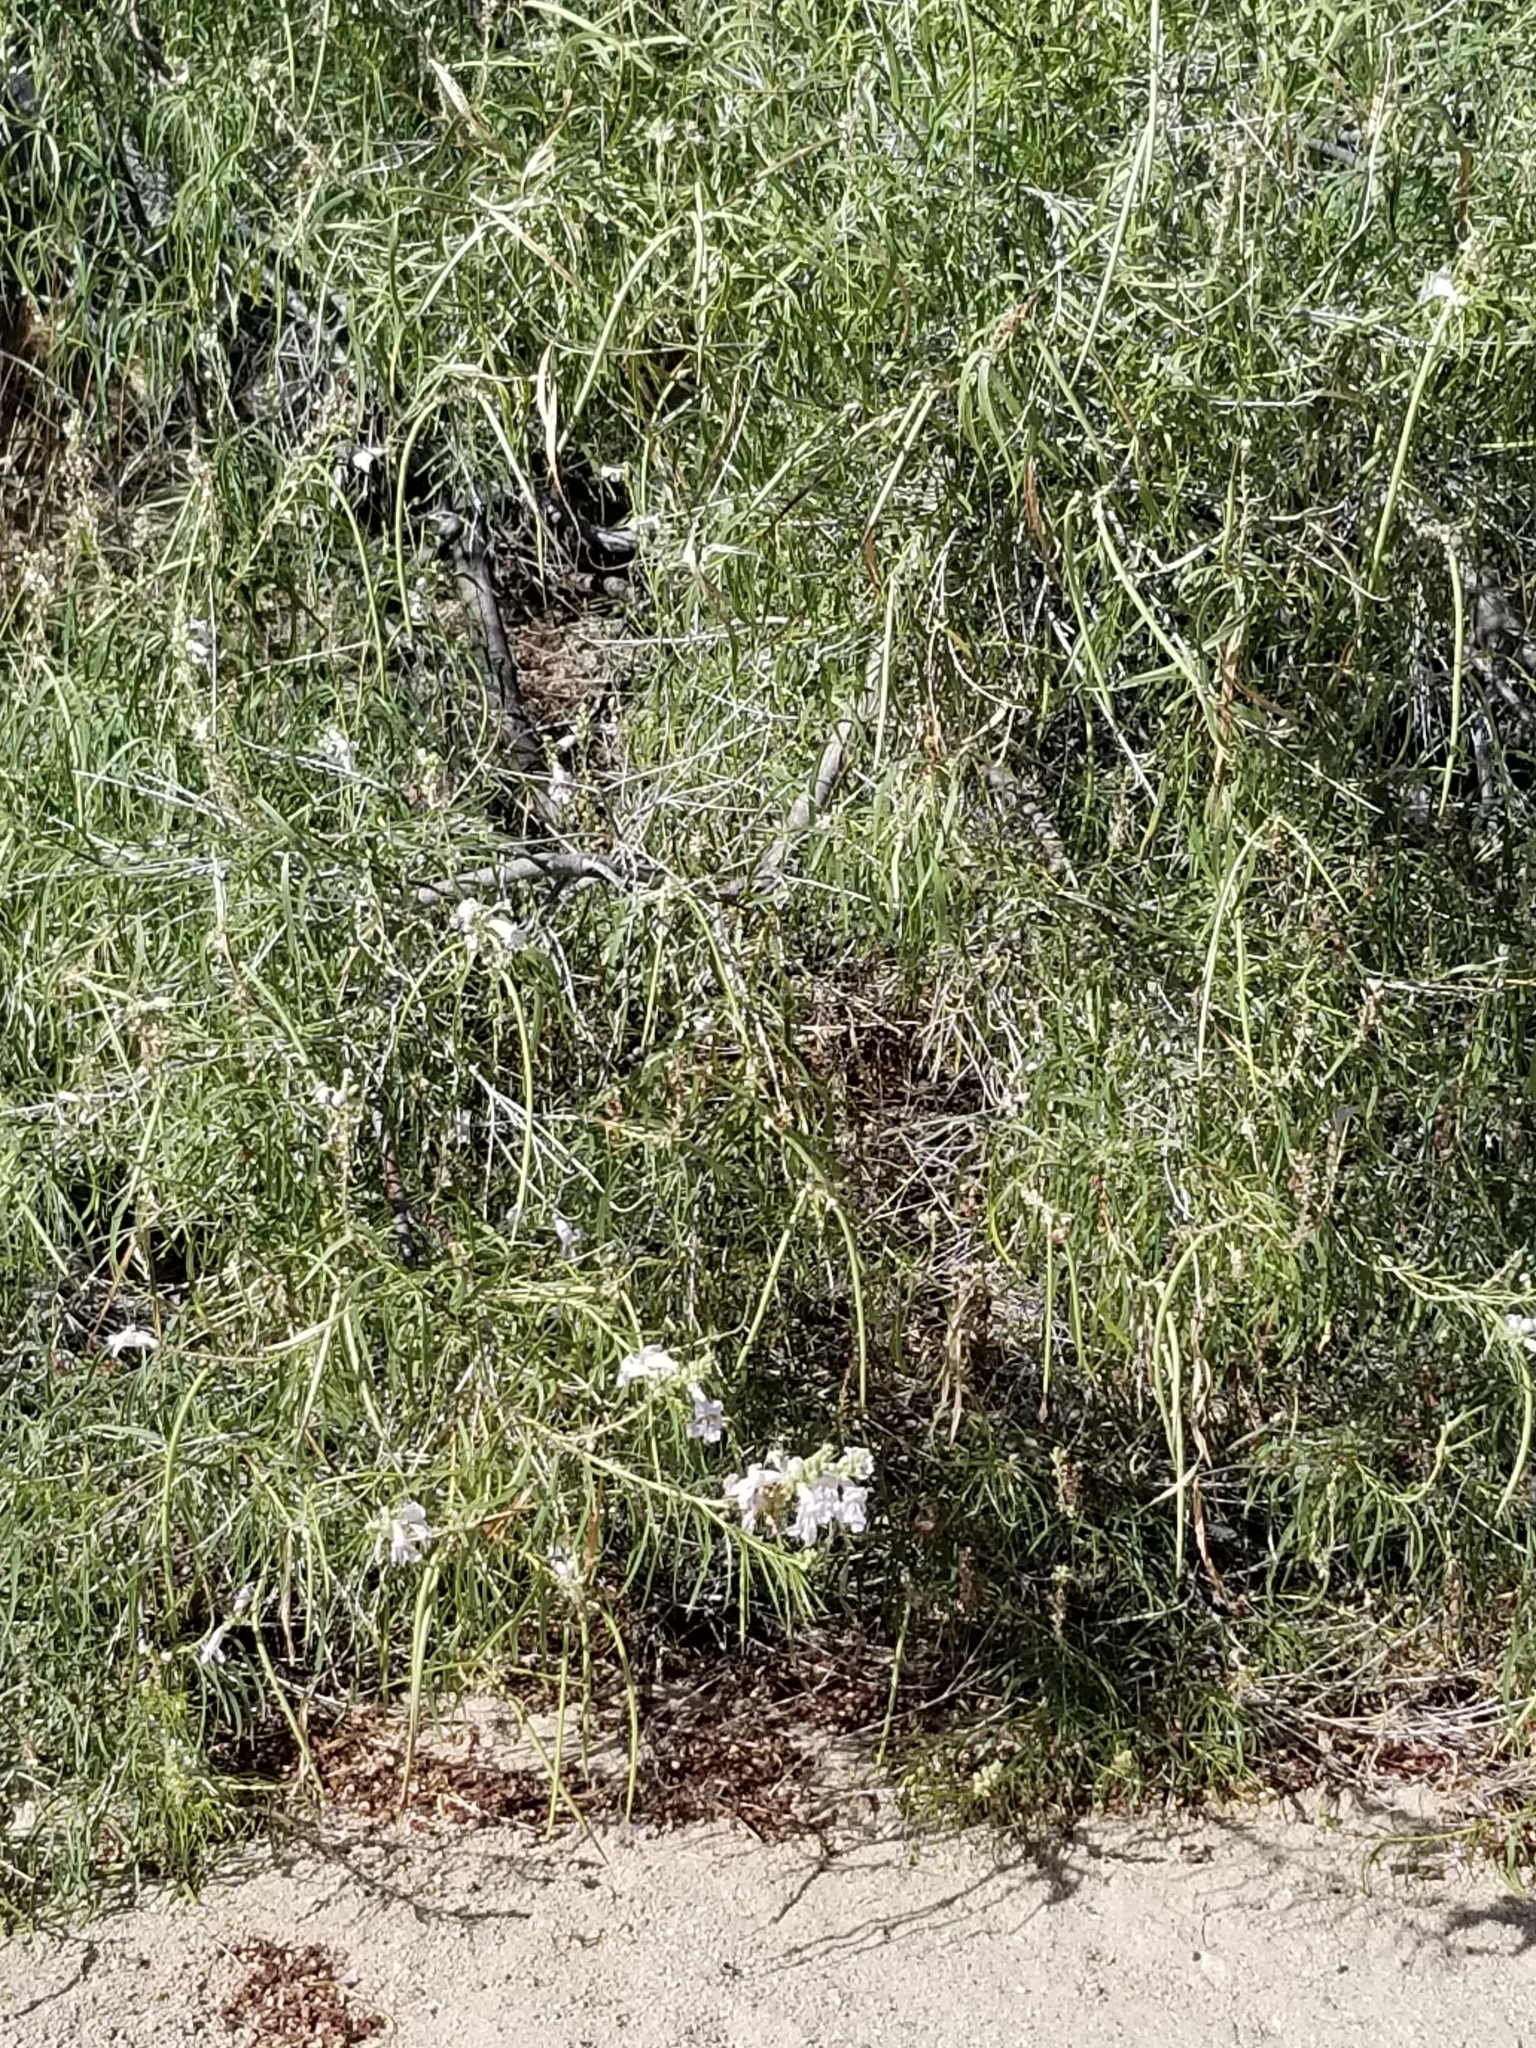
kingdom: Plantae
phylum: Tracheophyta
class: Magnoliopsida
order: Lamiales
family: Bignoniaceae
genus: Chilopsis
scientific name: Chilopsis linearis
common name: Desert-willow
